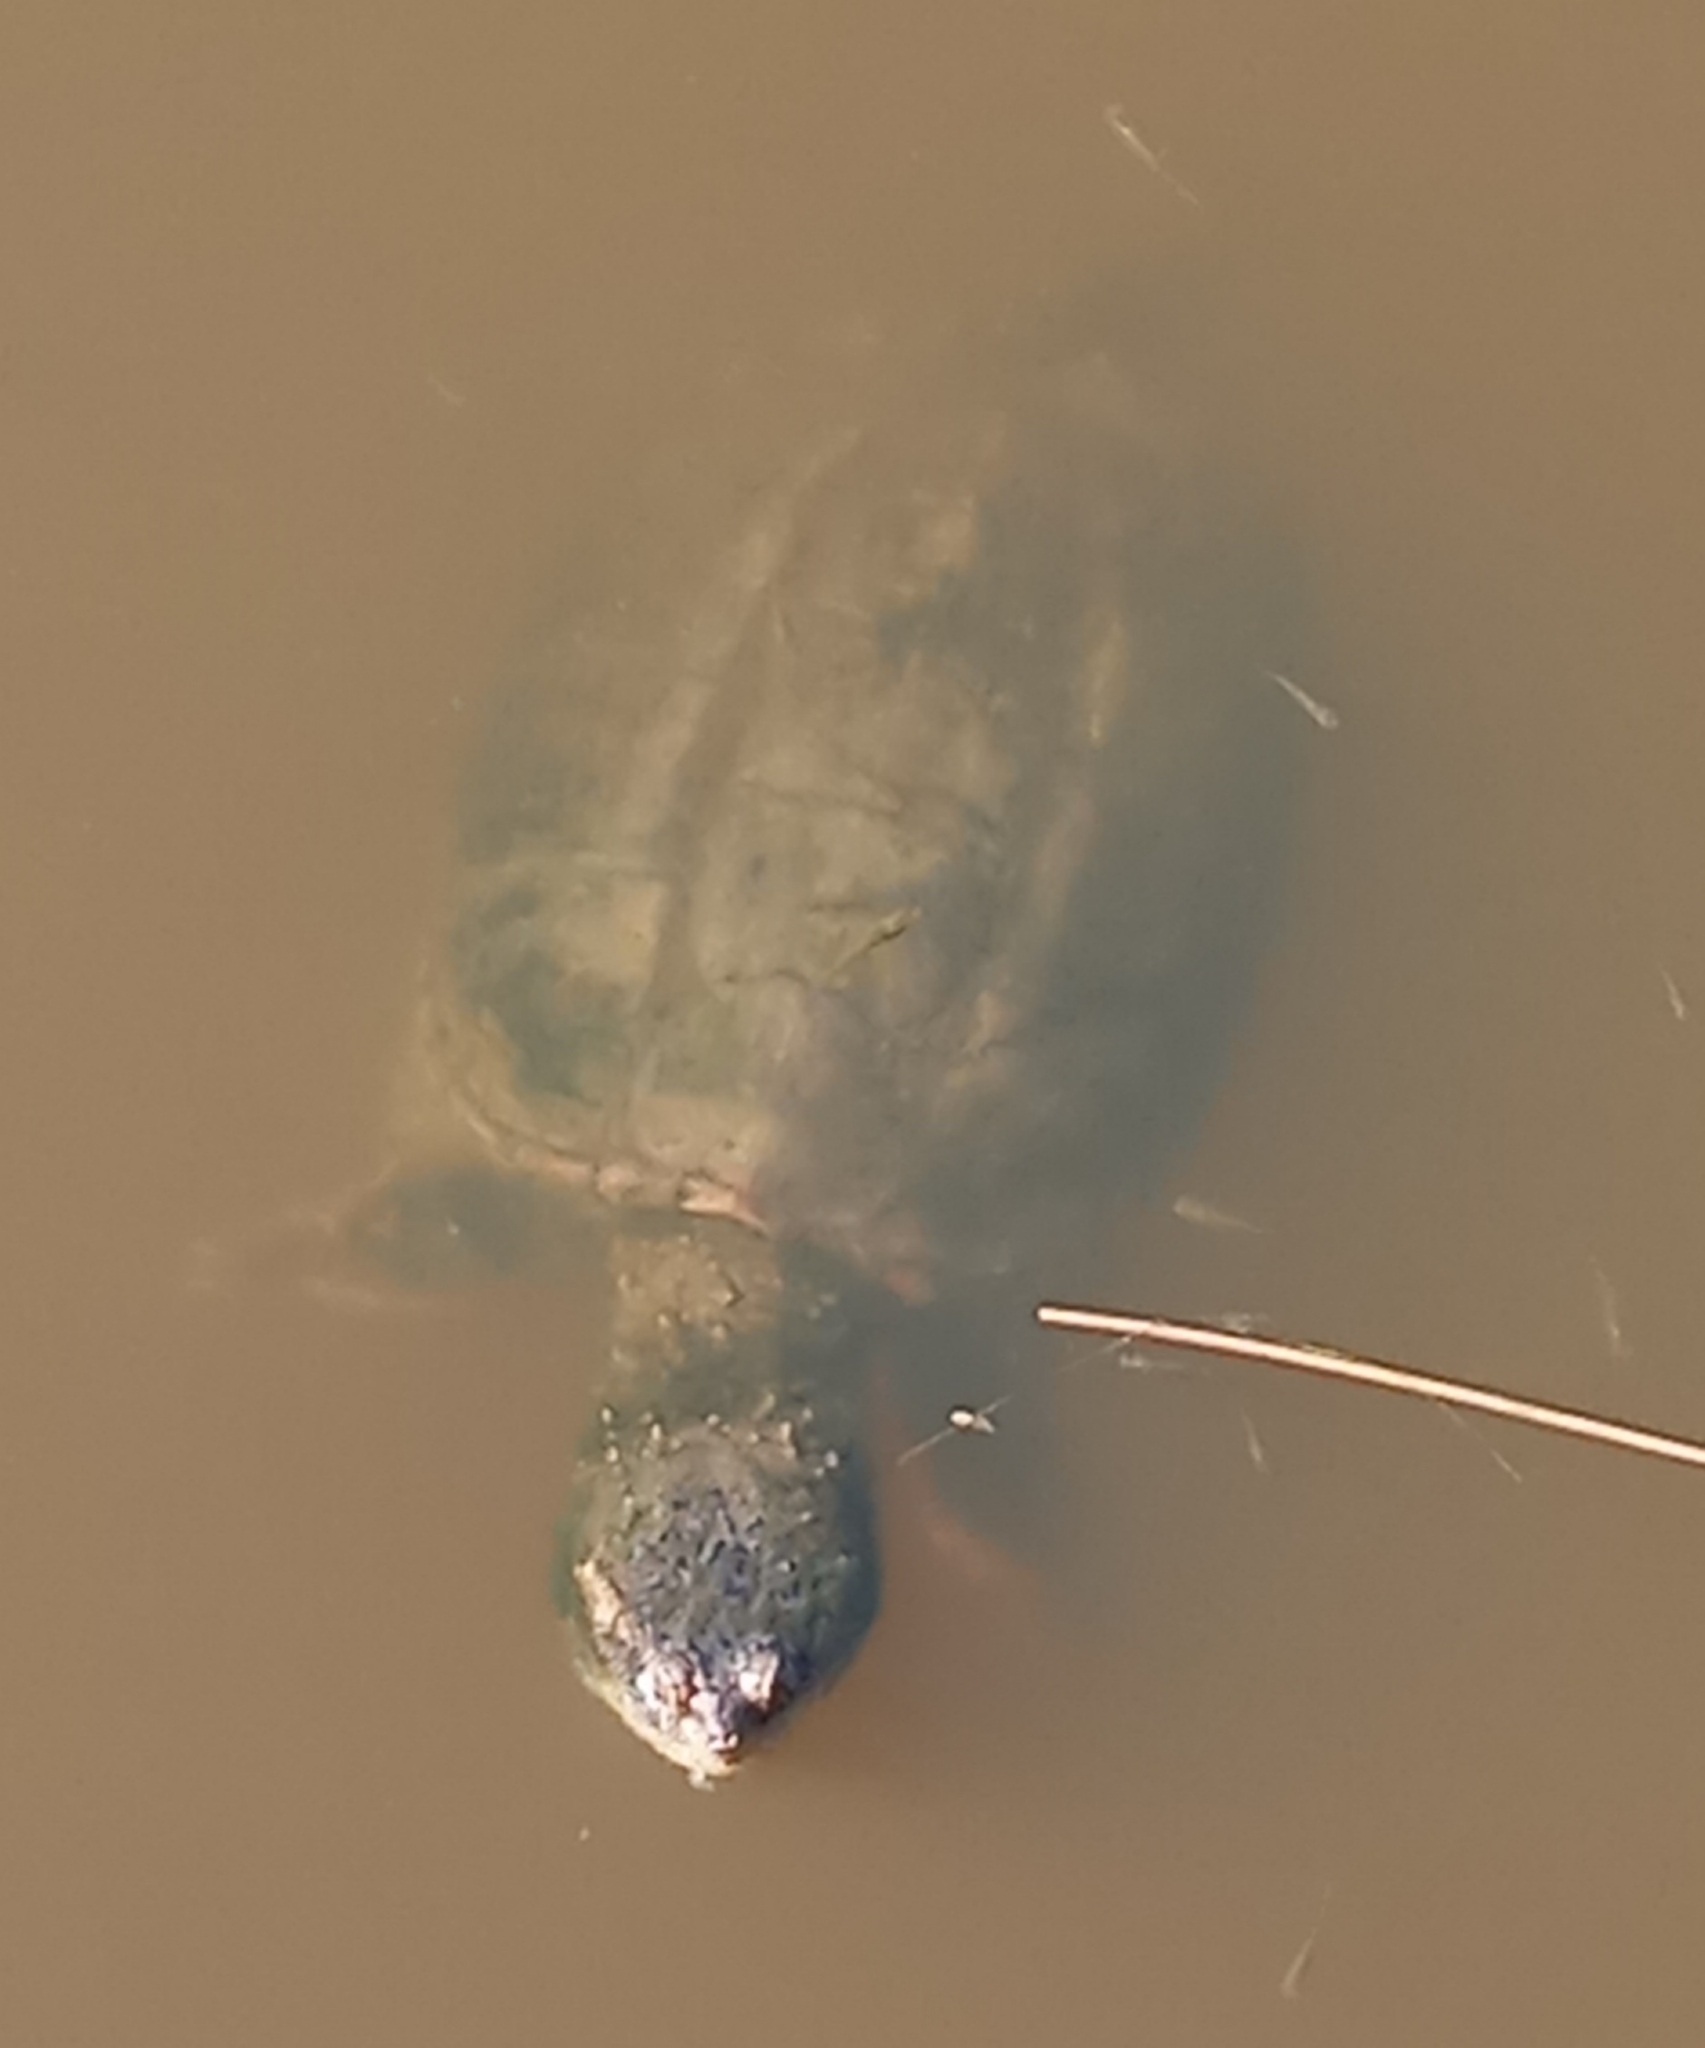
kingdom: Animalia
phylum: Chordata
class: Testudines
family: Chelydridae
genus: Chelydra
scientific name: Chelydra serpentina
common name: Common snapping turtle
